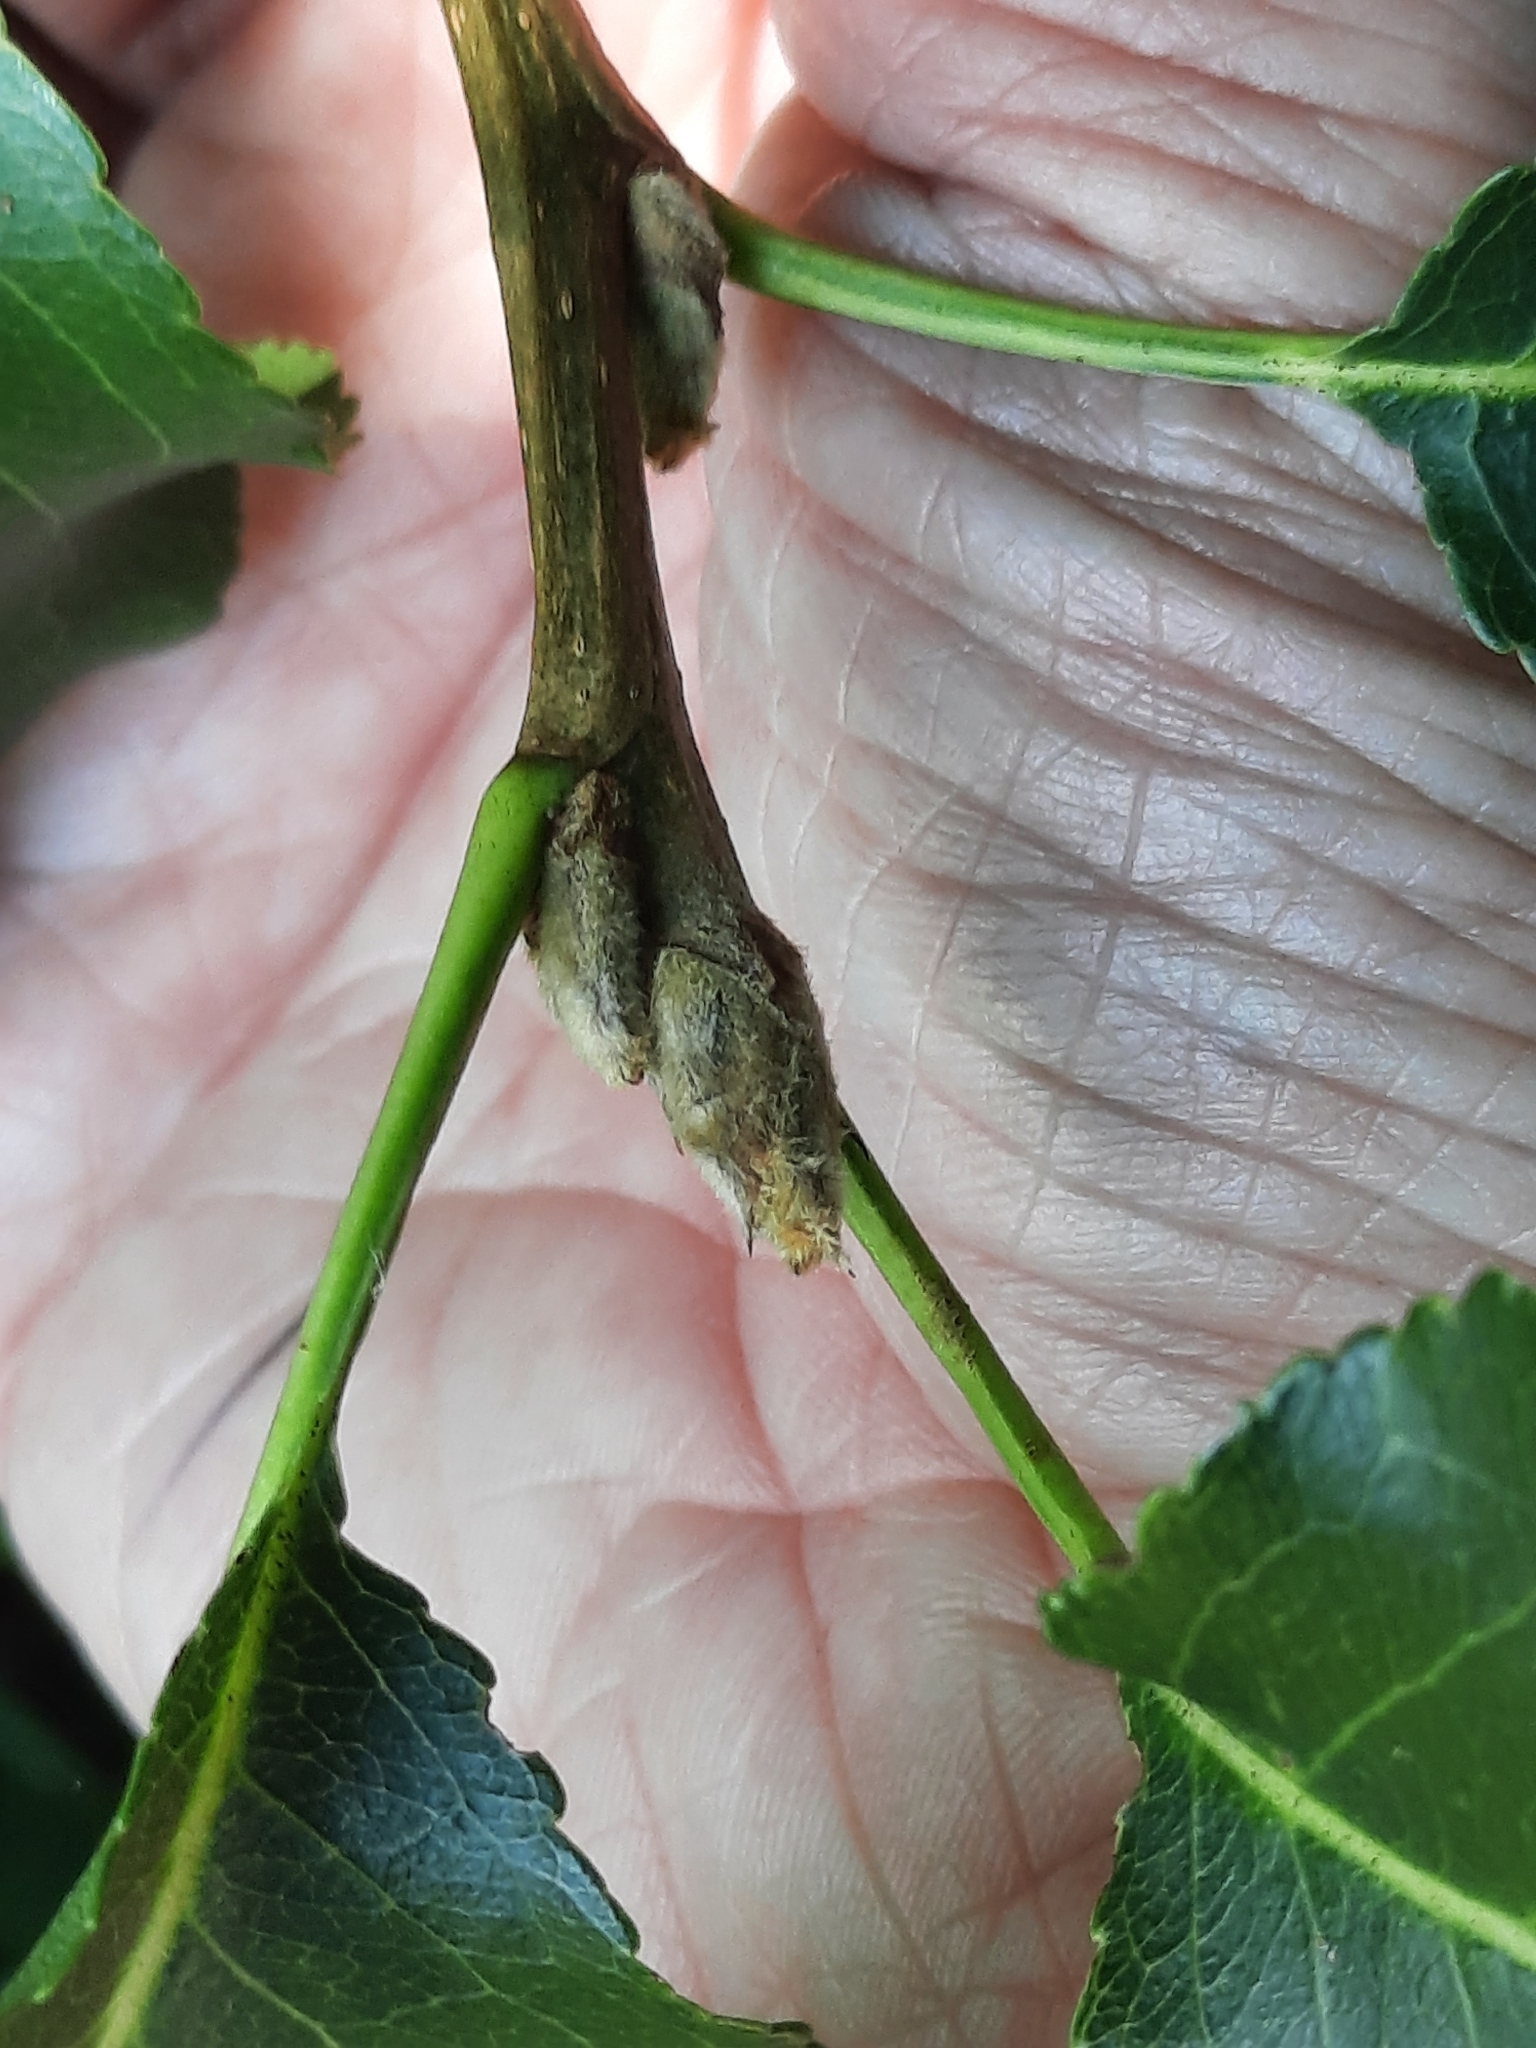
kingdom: Plantae
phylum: Tracheophyta
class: Magnoliopsida
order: Rosales
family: Rosaceae
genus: Pyrus
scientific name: Pyrus calleryana
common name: Callery pear
